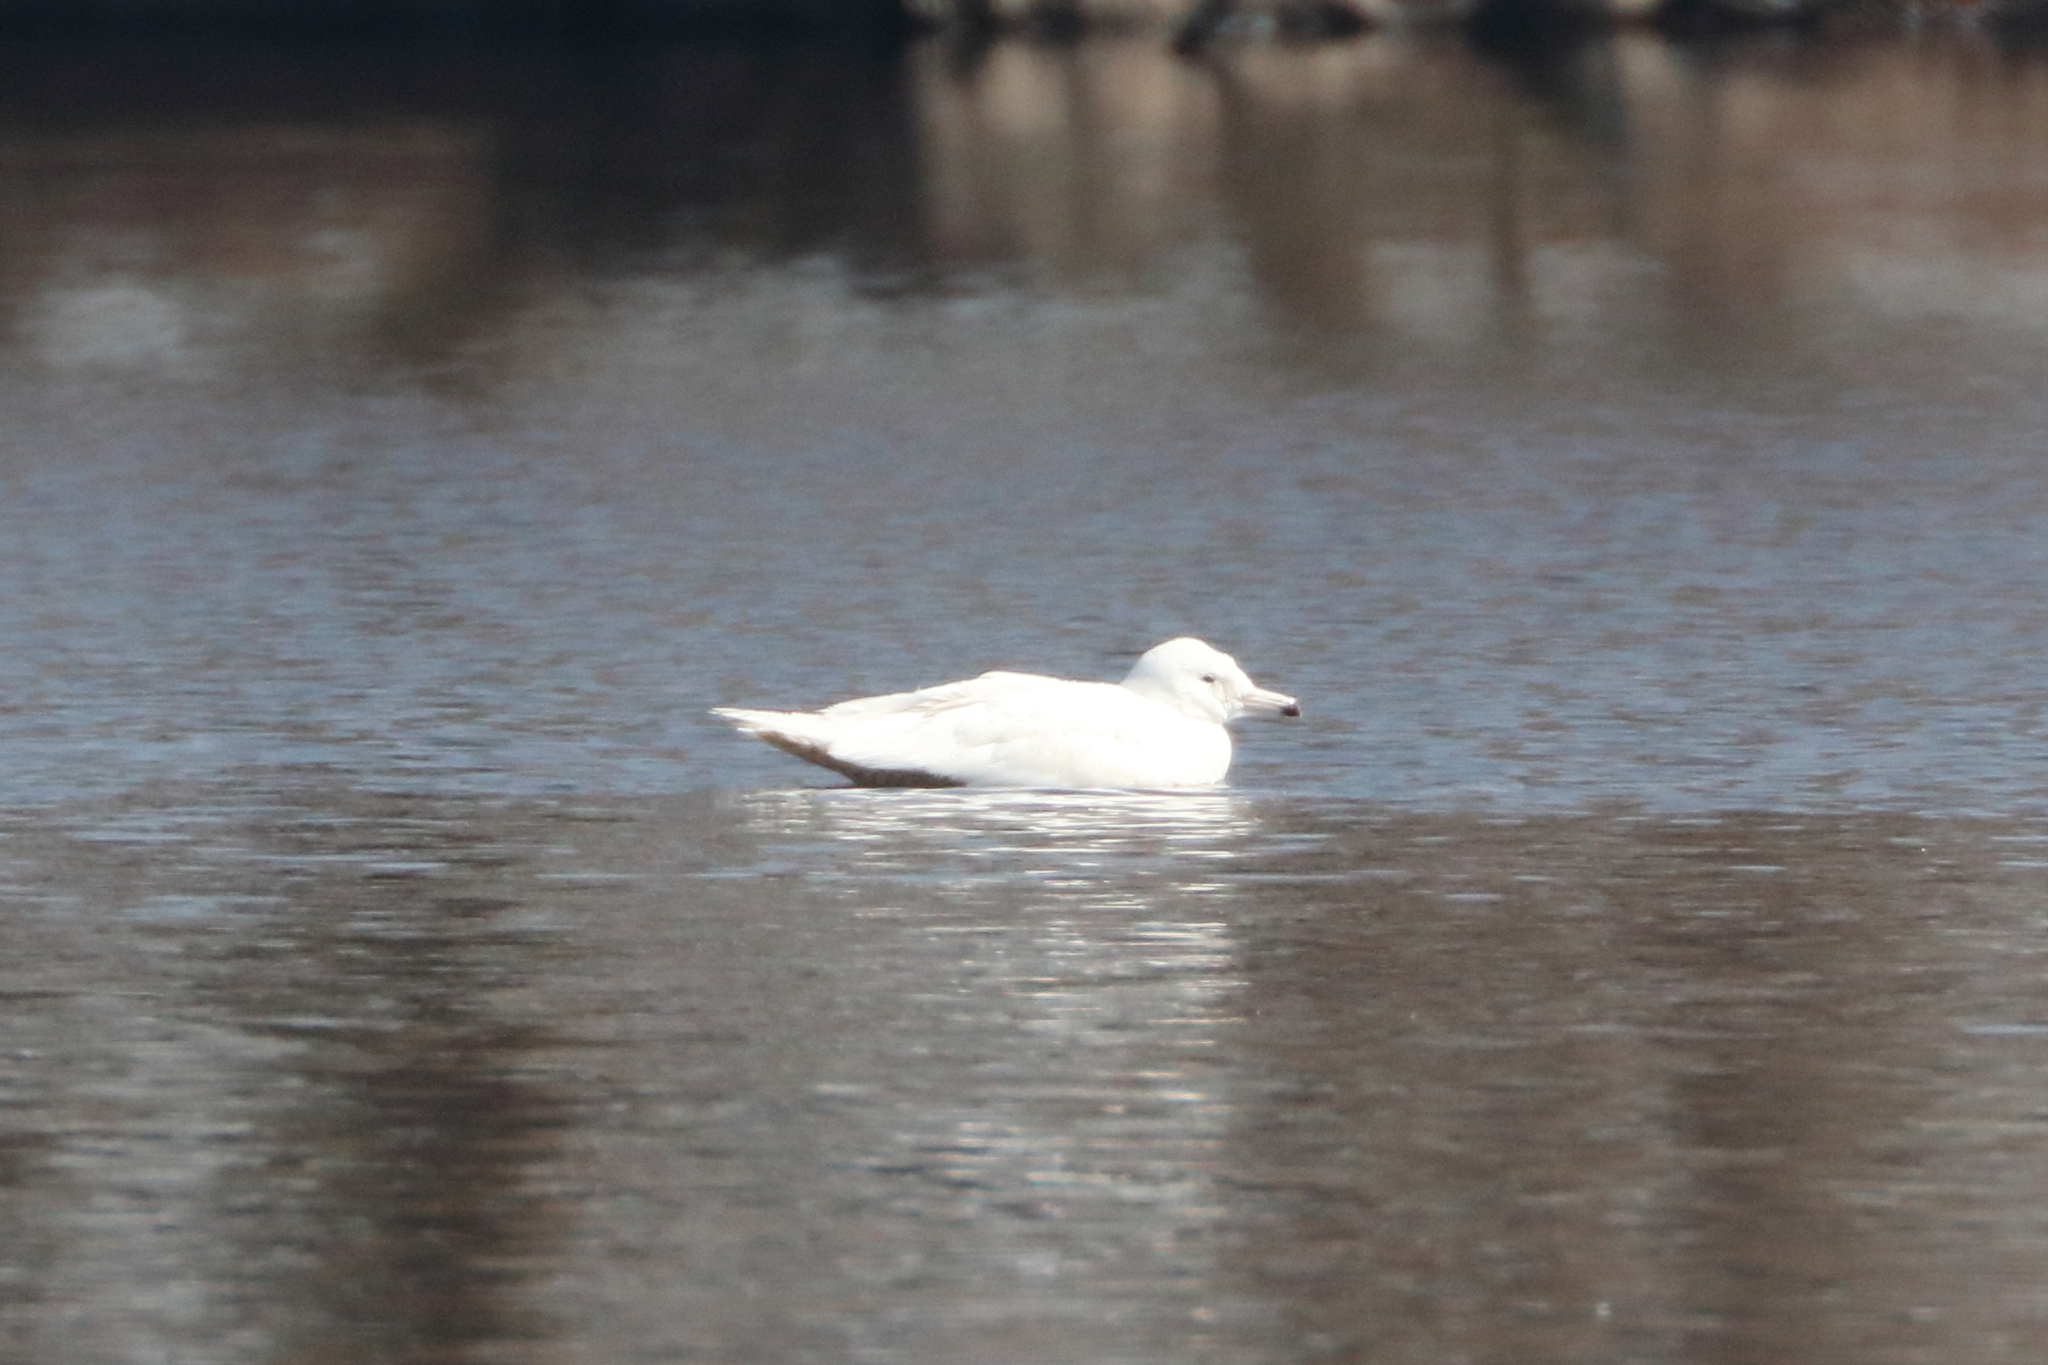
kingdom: Animalia
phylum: Chordata
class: Aves
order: Charadriiformes
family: Laridae
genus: Larus
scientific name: Larus hyperboreus
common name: Glaucous gull
